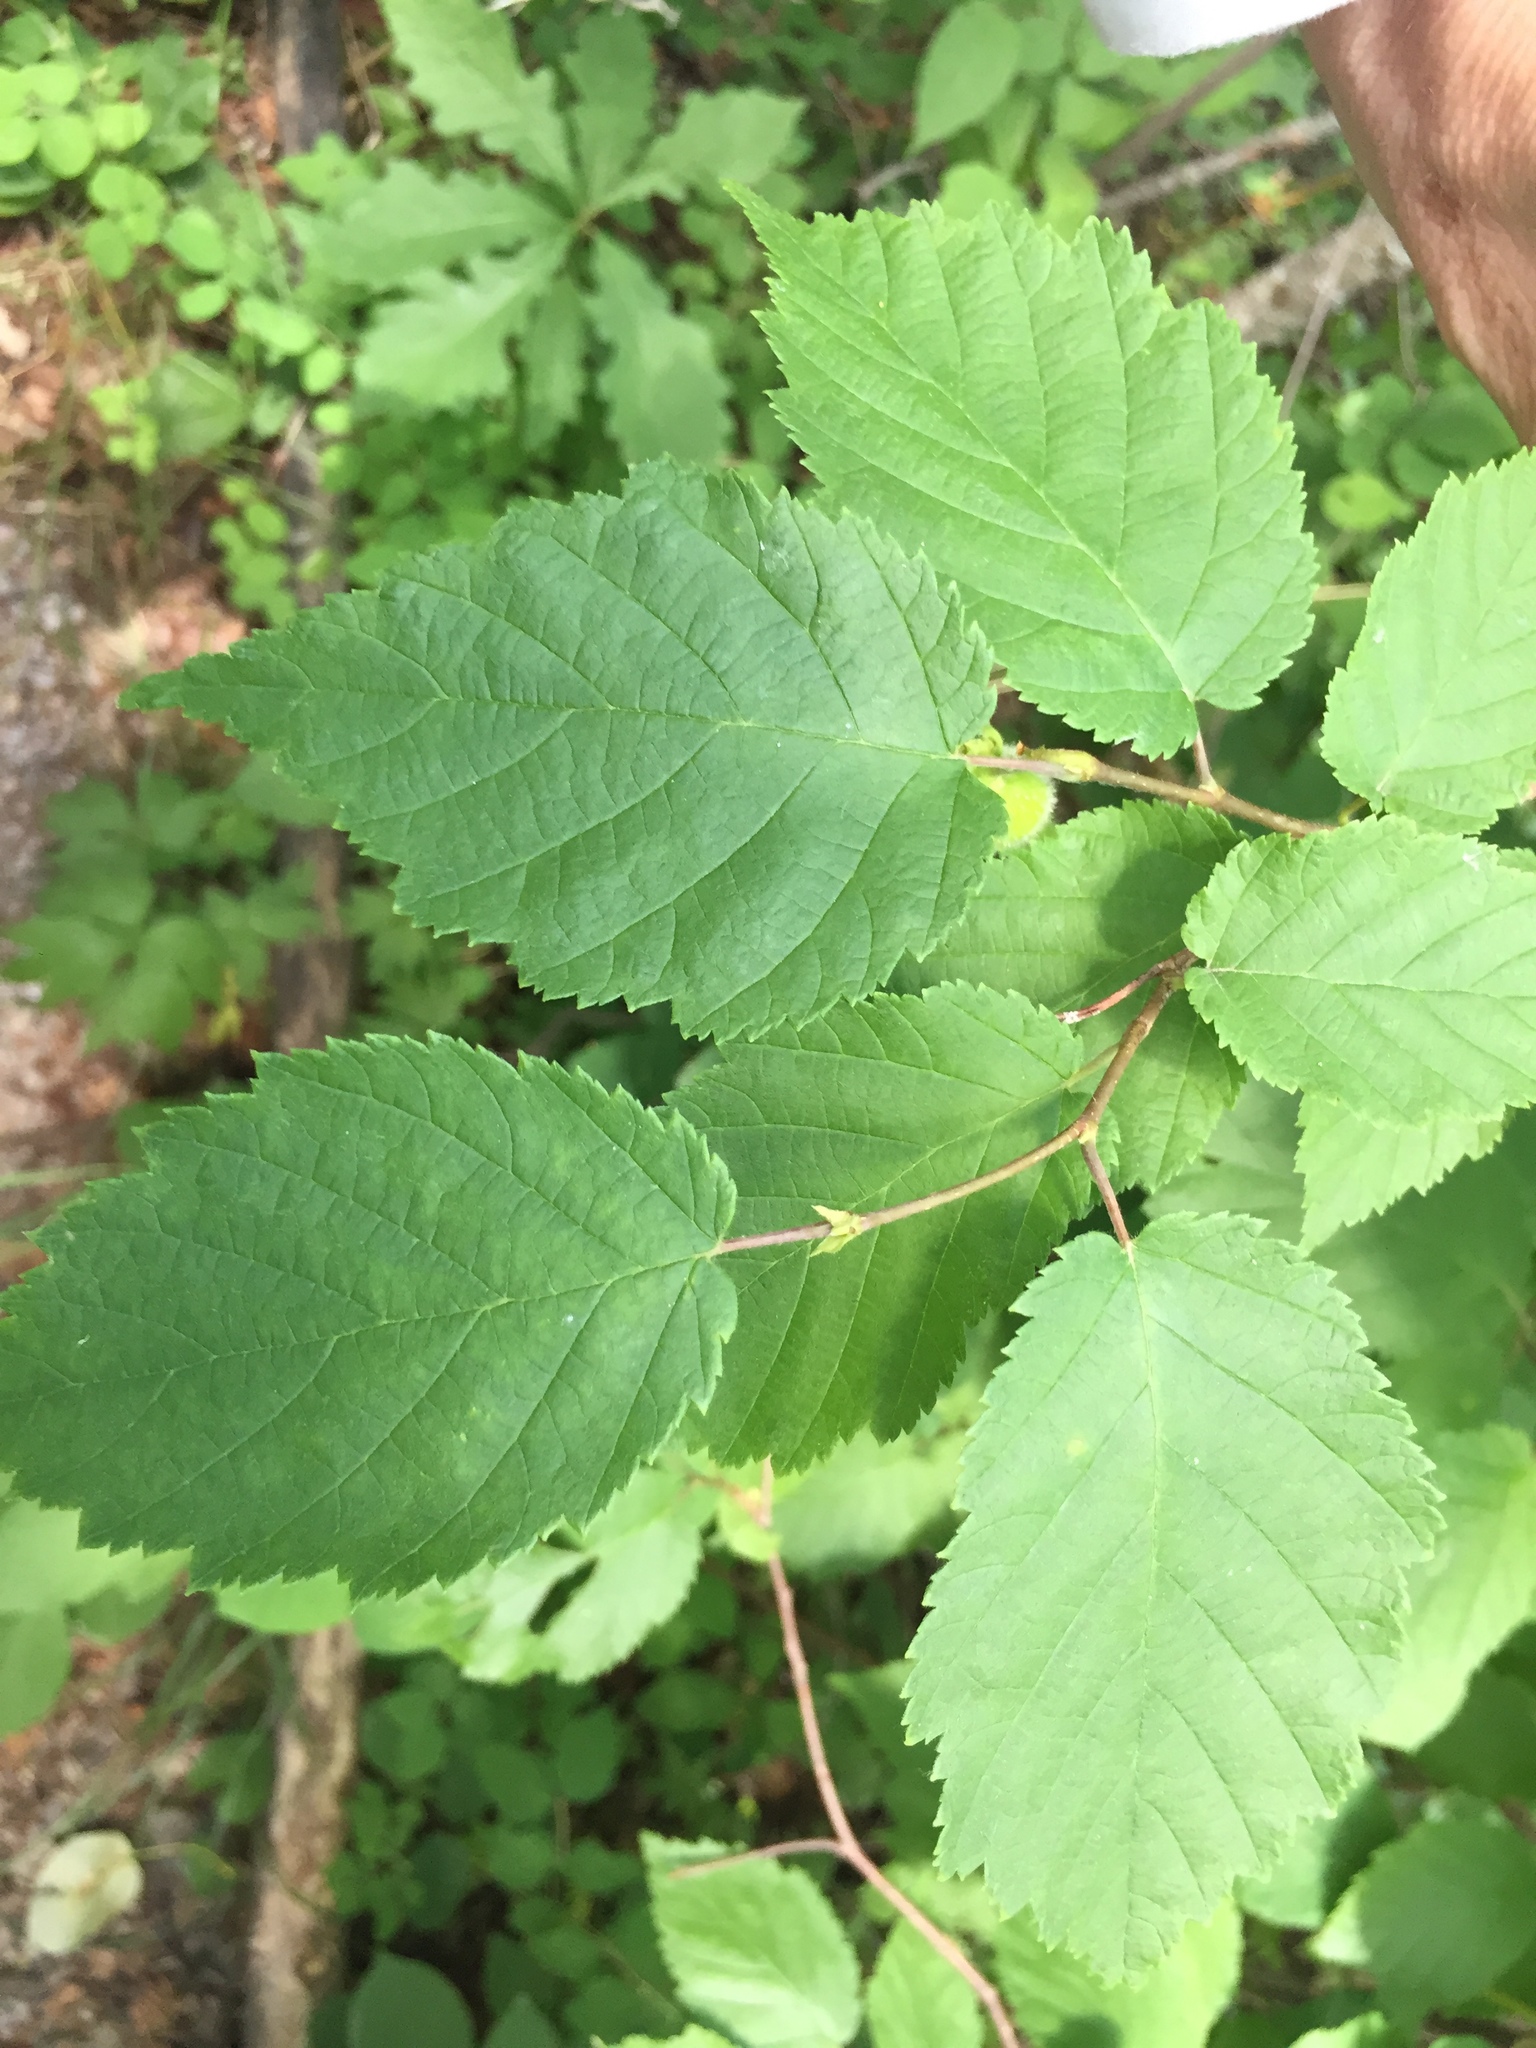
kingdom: Plantae
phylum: Tracheophyta
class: Magnoliopsida
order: Fagales
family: Betulaceae
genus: Corylus
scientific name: Corylus cornuta
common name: Beaked hazel
